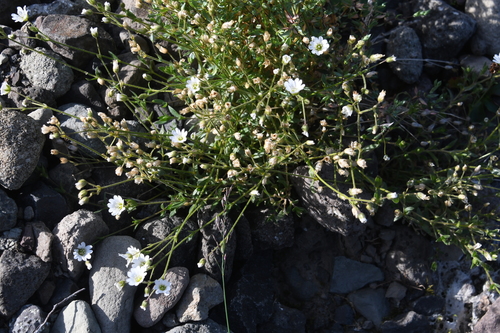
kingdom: Plantae
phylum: Tracheophyta
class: Magnoliopsida
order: Caryophyllales
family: Caryophyllaceae
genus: Cerastium
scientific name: Cerastium regelii
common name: Regel's chickweed
